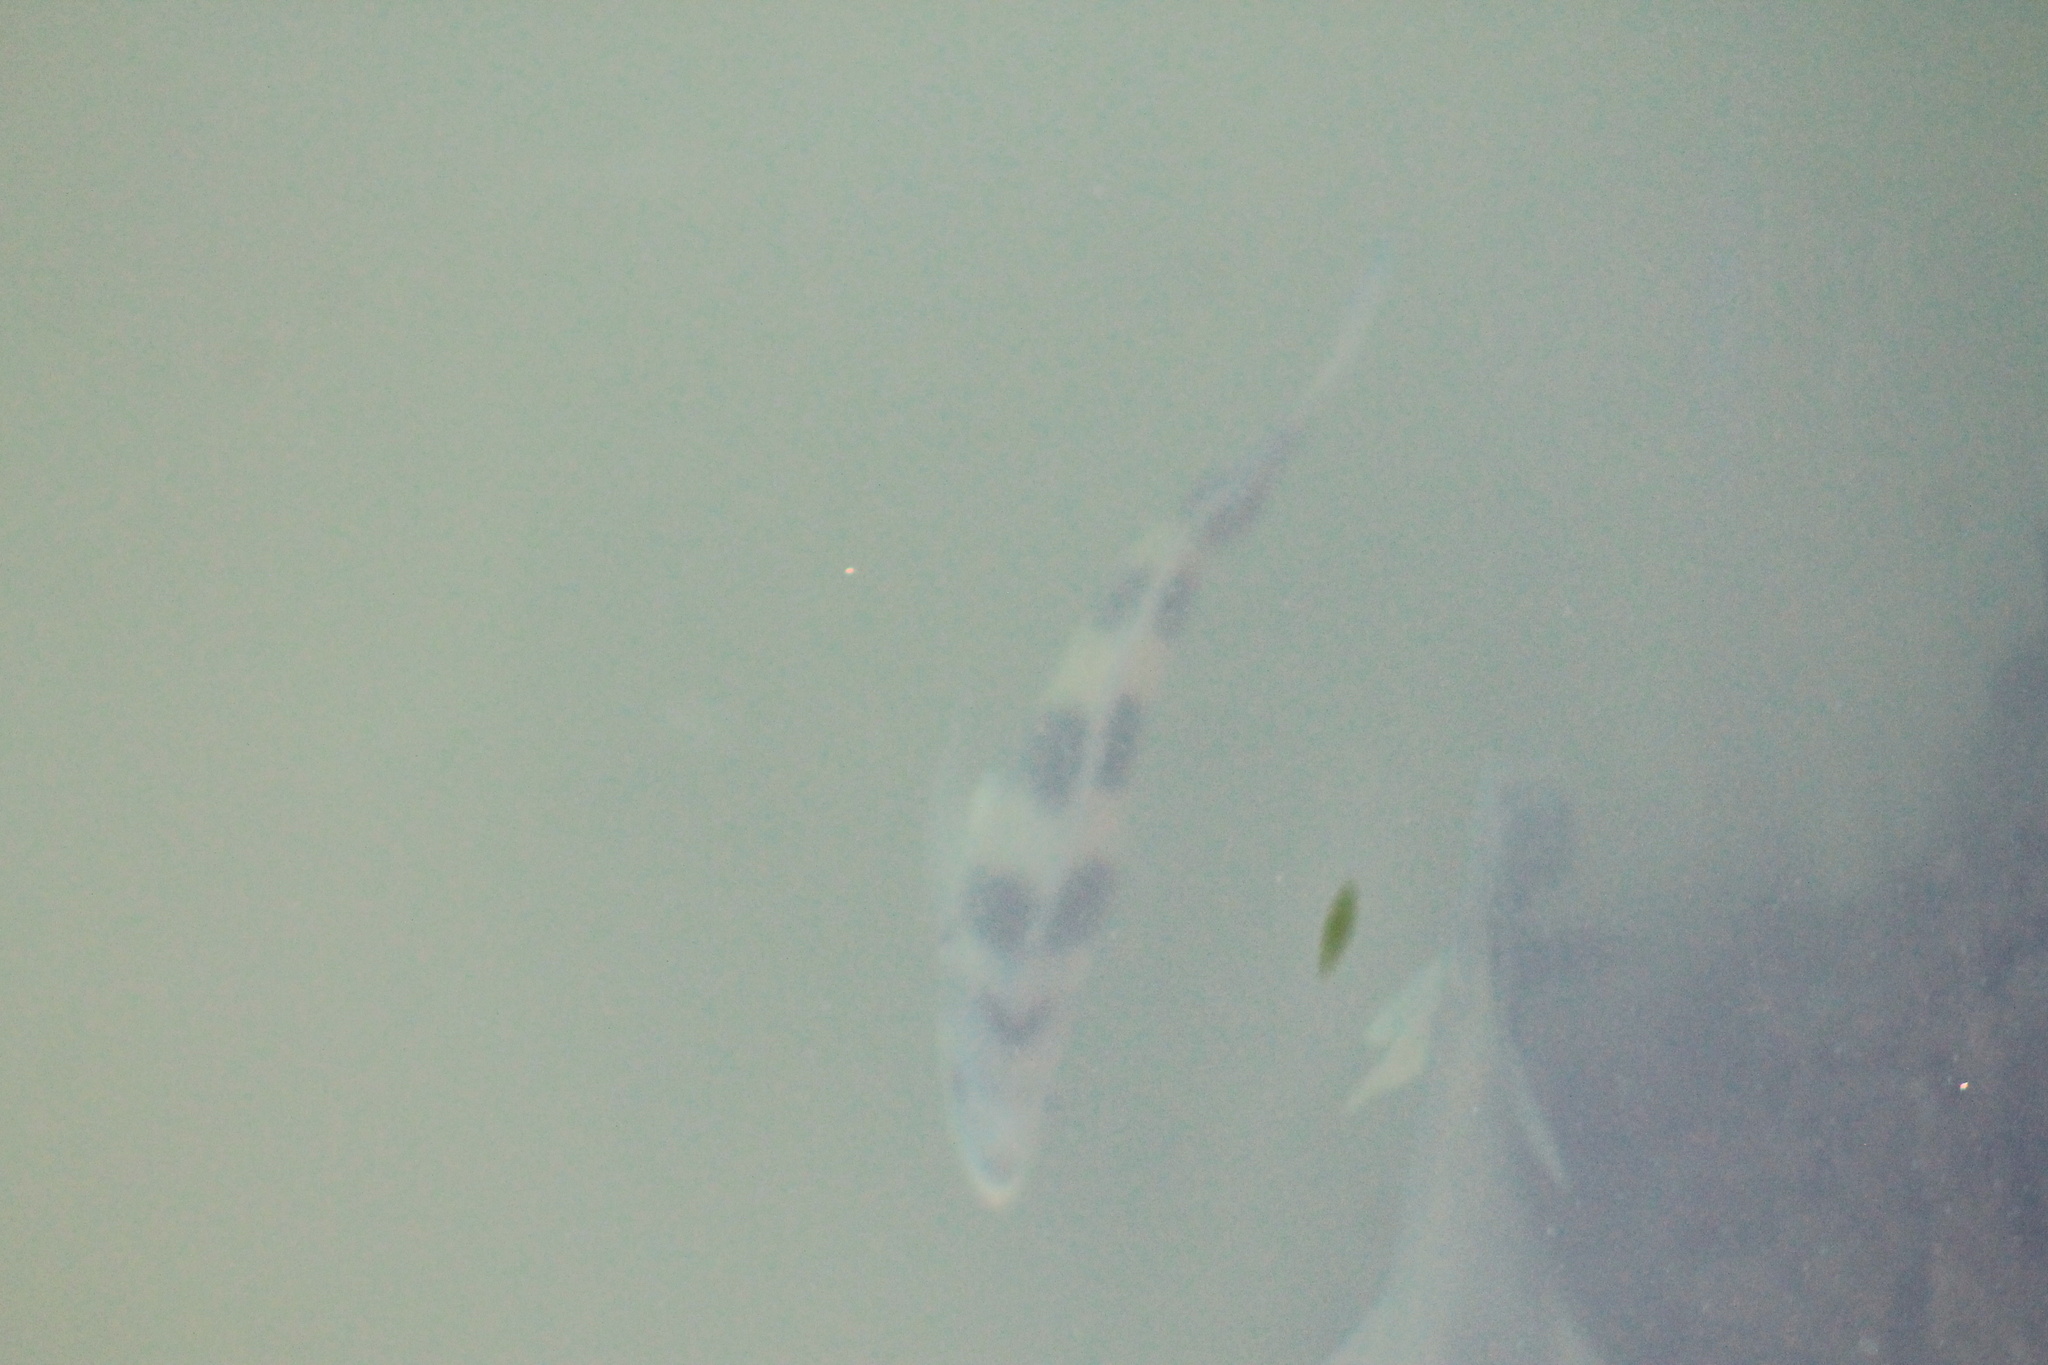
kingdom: Animalia
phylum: Chordata
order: Perciformes
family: Sparidae
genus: Archosargus
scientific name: Archosargus probatocephalus
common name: Sheepshead
